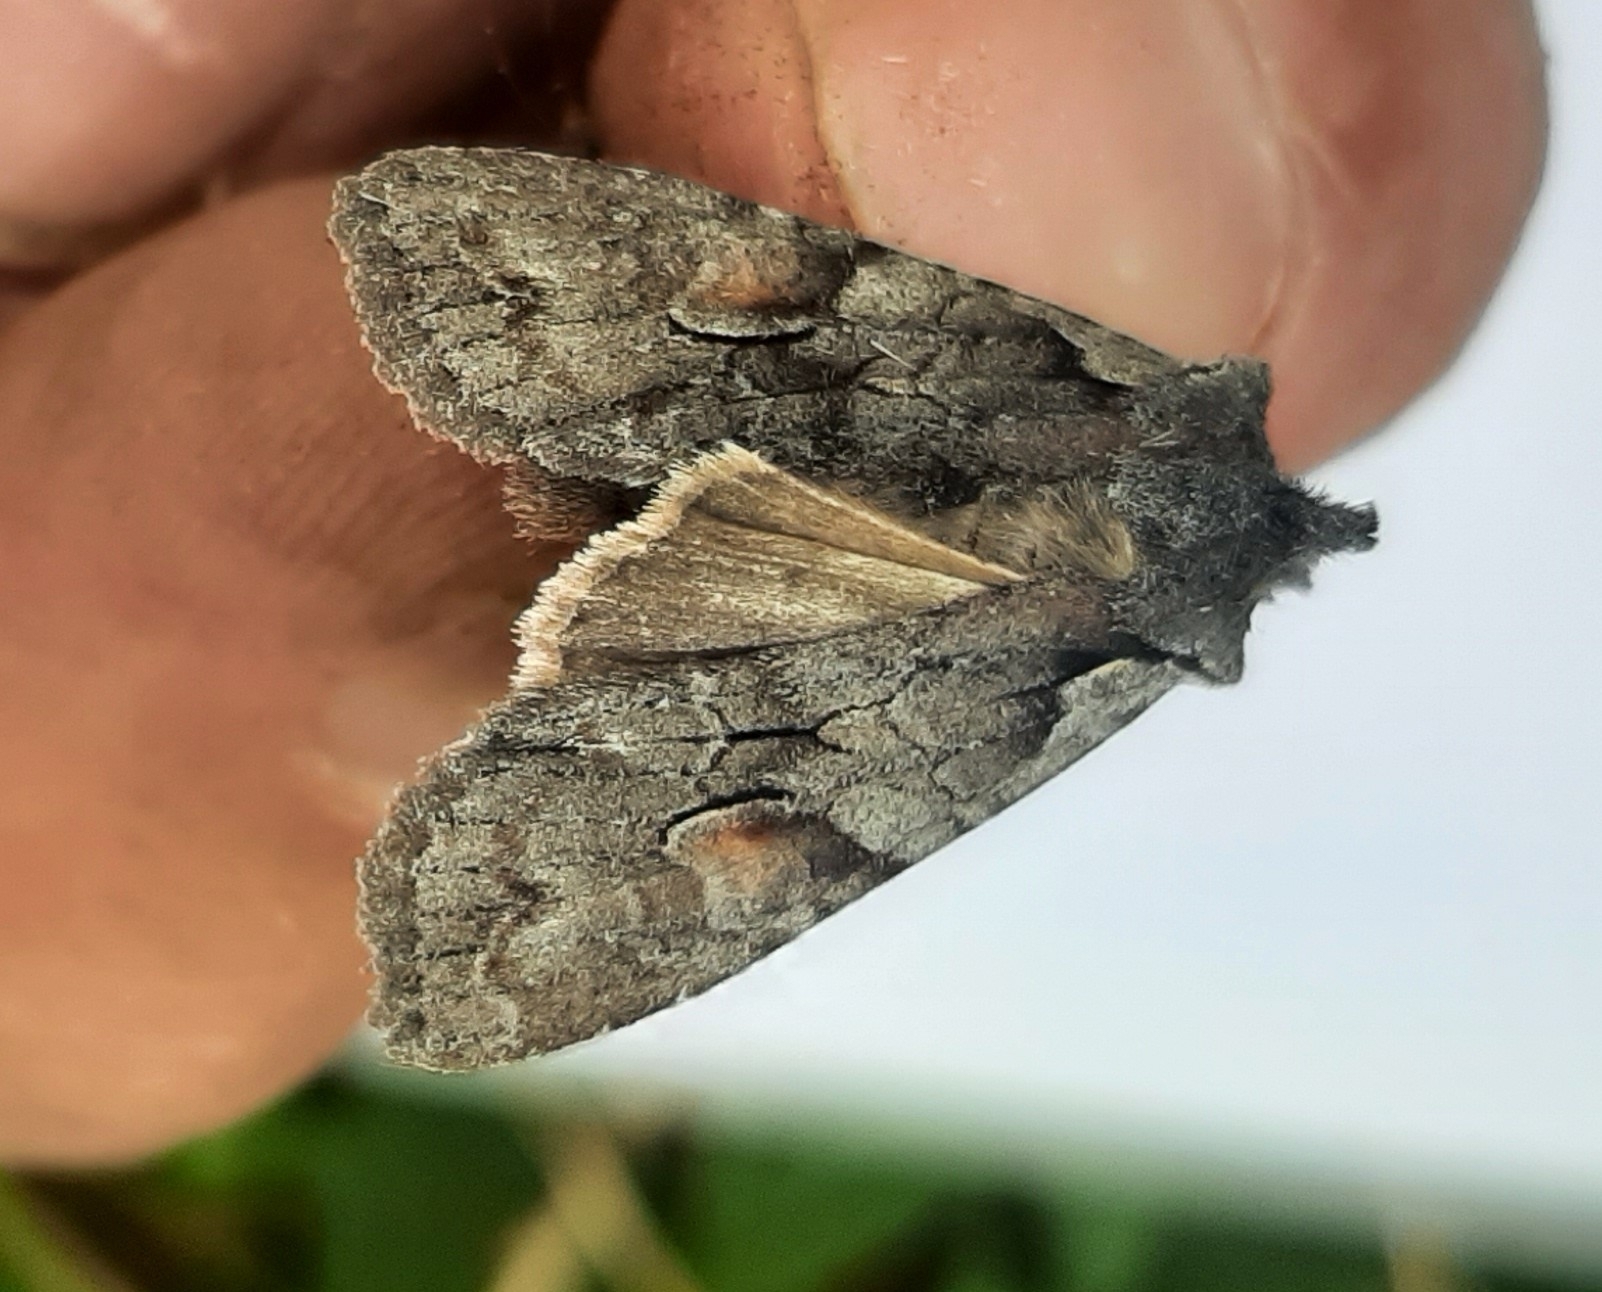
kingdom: Animalia
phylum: Arthropoda
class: Insecta
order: Lepidoptera
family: Noctuidae
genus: Lithophane
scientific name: Lithophane consocia
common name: Softly's shoulder-knot
